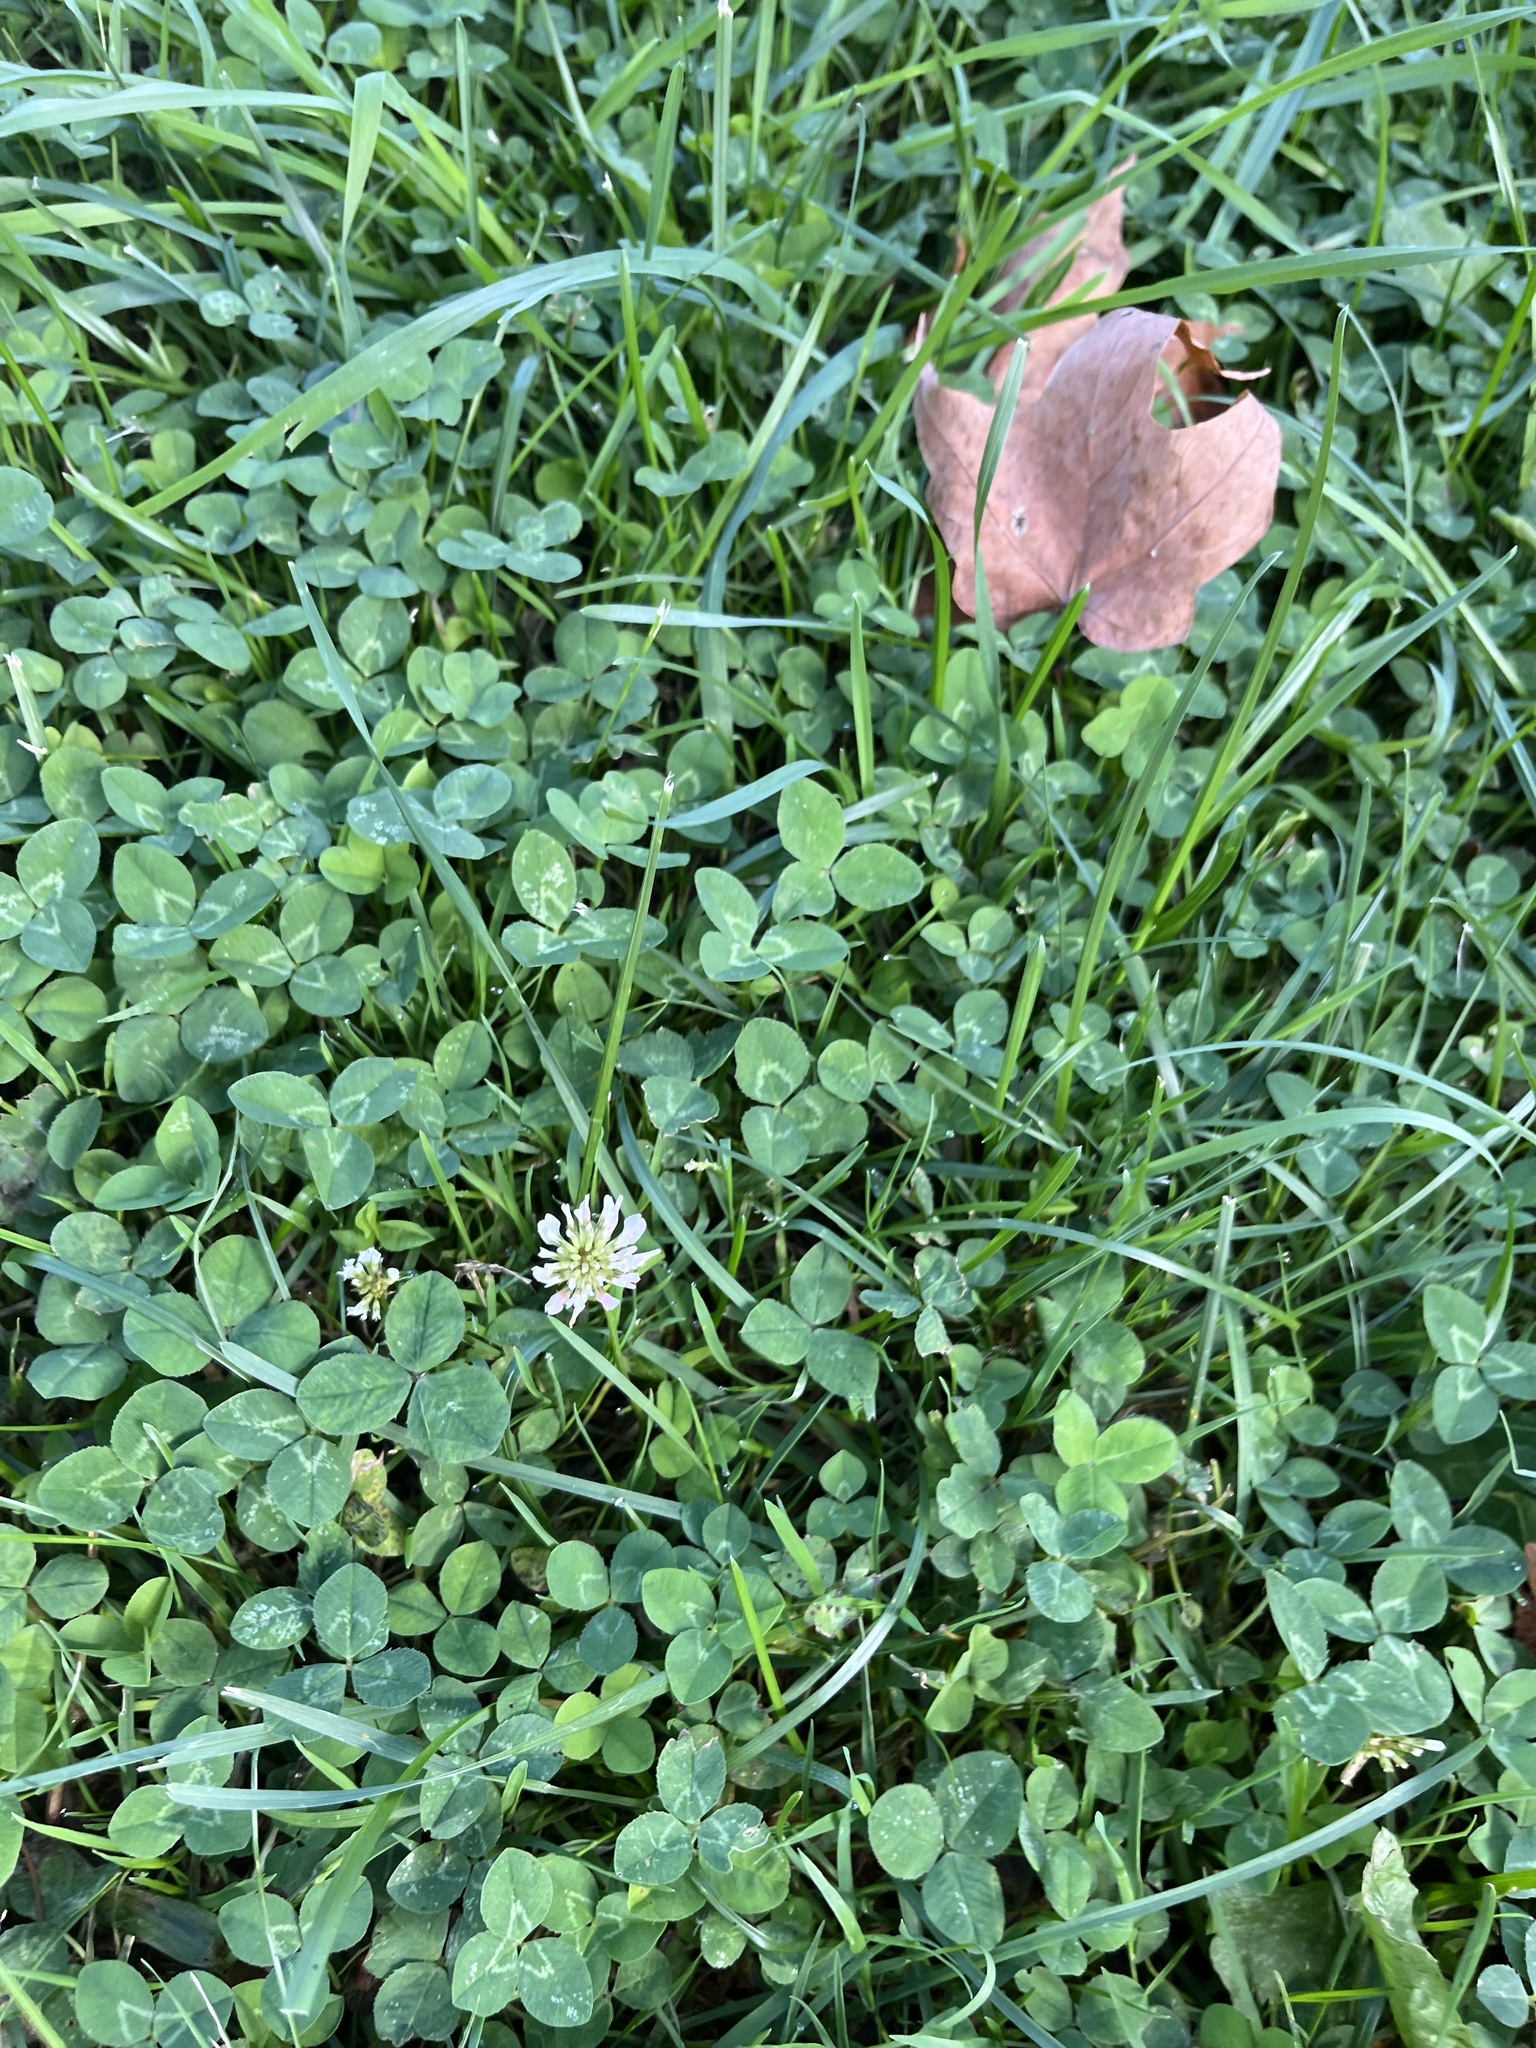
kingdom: Plantae
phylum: Tracheophyta
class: Magnoliopsida
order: Fabales
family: Fabaceae
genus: Trifolium
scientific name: Trifolium repens
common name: White clover
